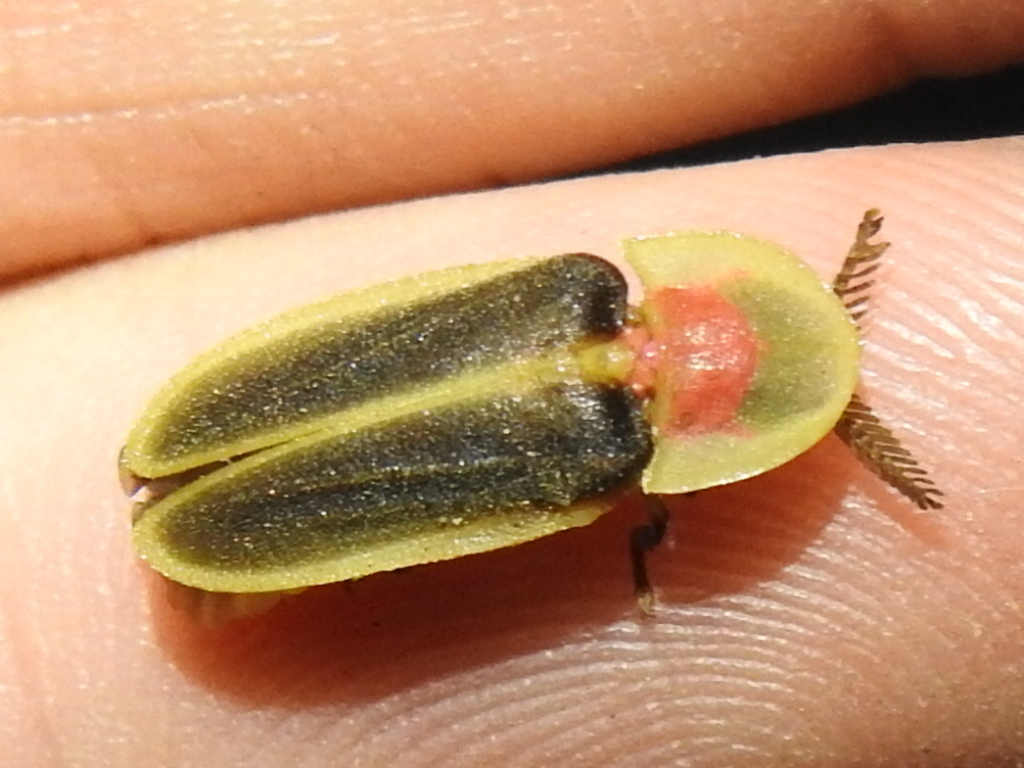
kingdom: Animalia
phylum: Arthropoda
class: Insecta
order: Coleoptera
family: Lampyridae
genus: Pleotomus
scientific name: Pleotomus pallens
